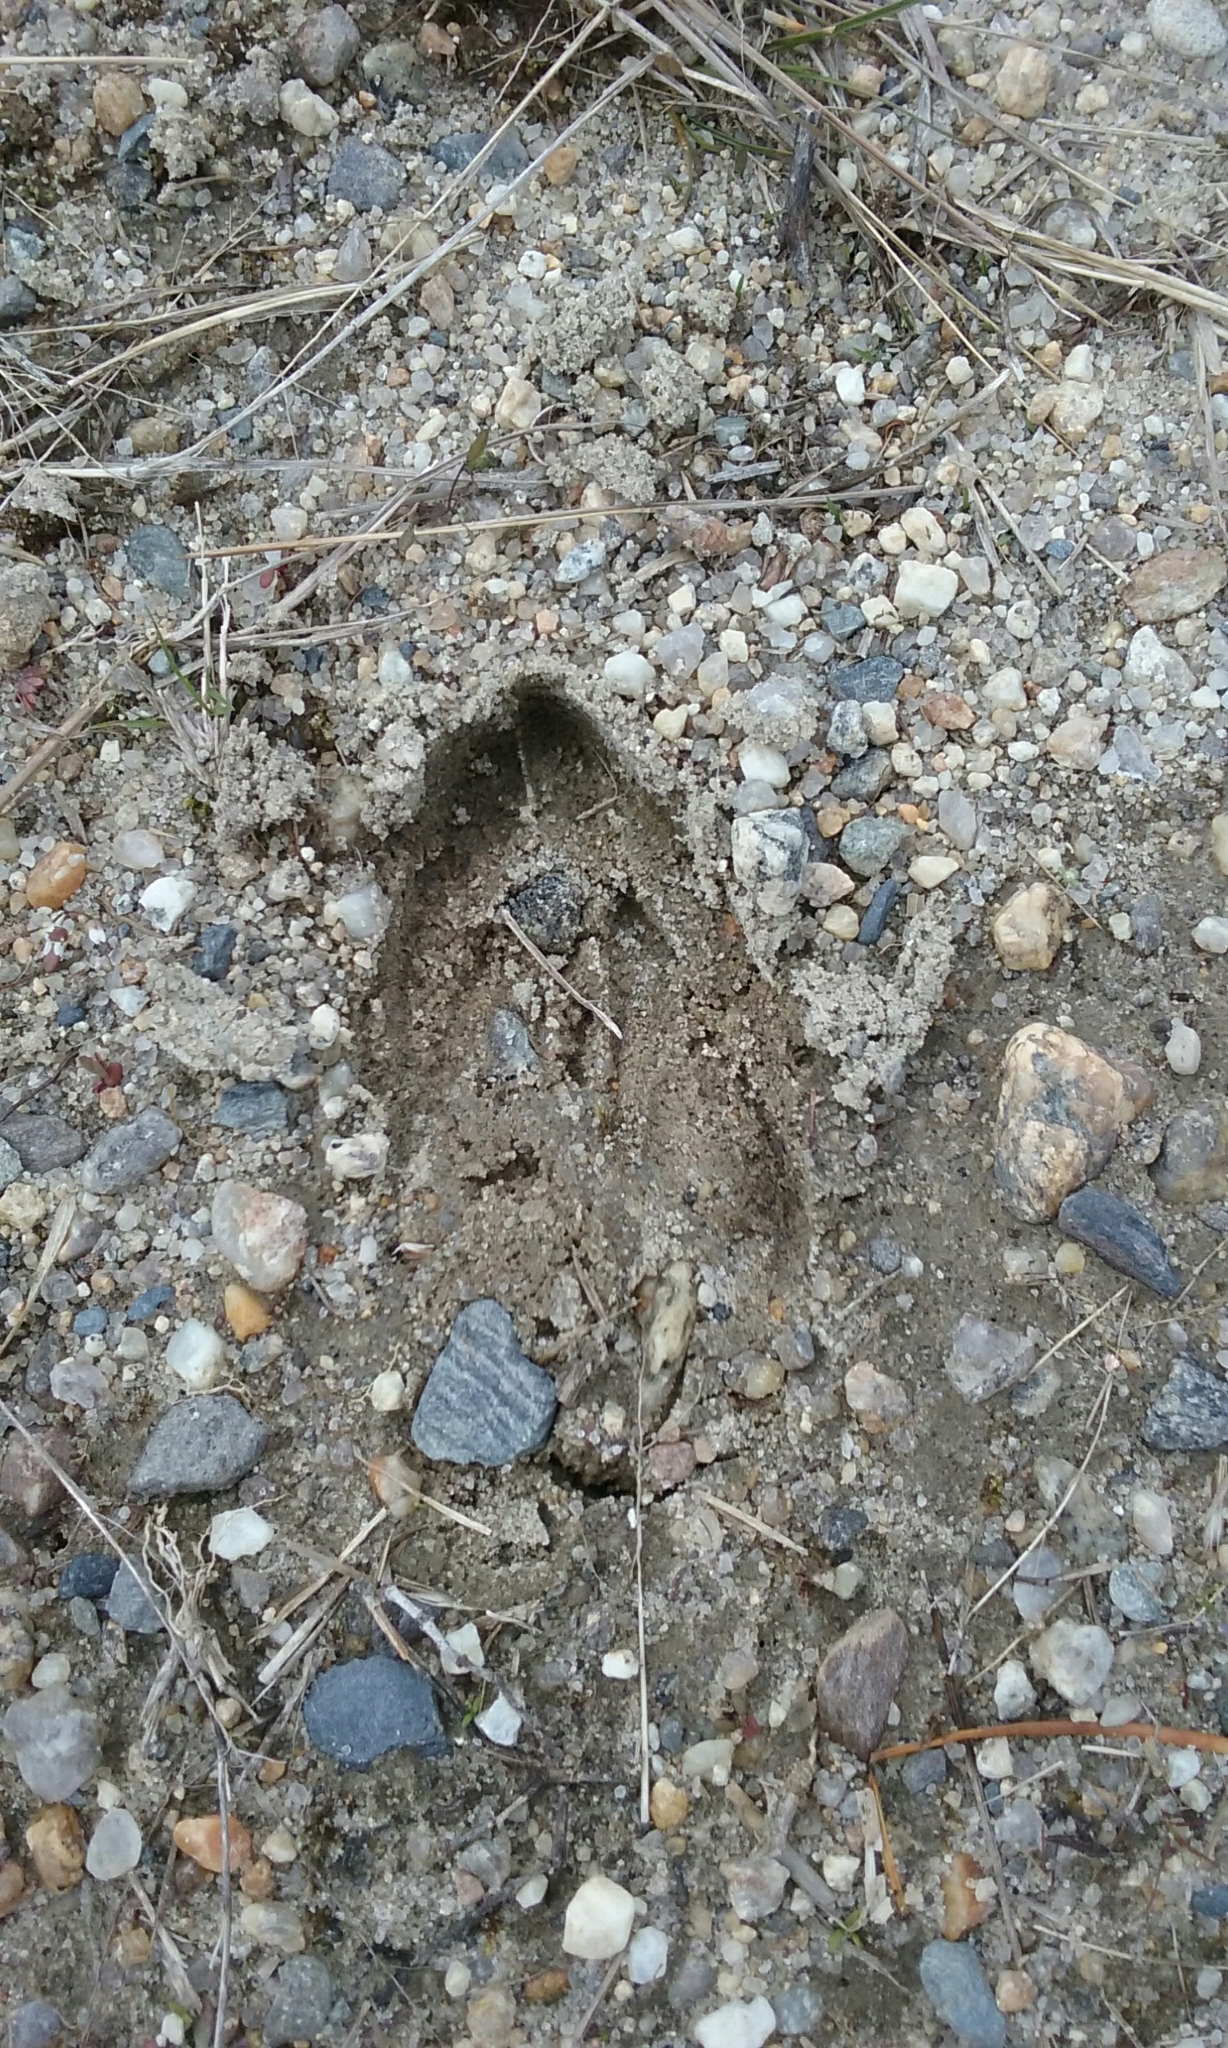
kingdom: Animalia
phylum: Chordata
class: Mammalia
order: Artiodactyla
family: Cervidae
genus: Odocoileus
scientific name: Odocoileus virginianus
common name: White-tailed deer
